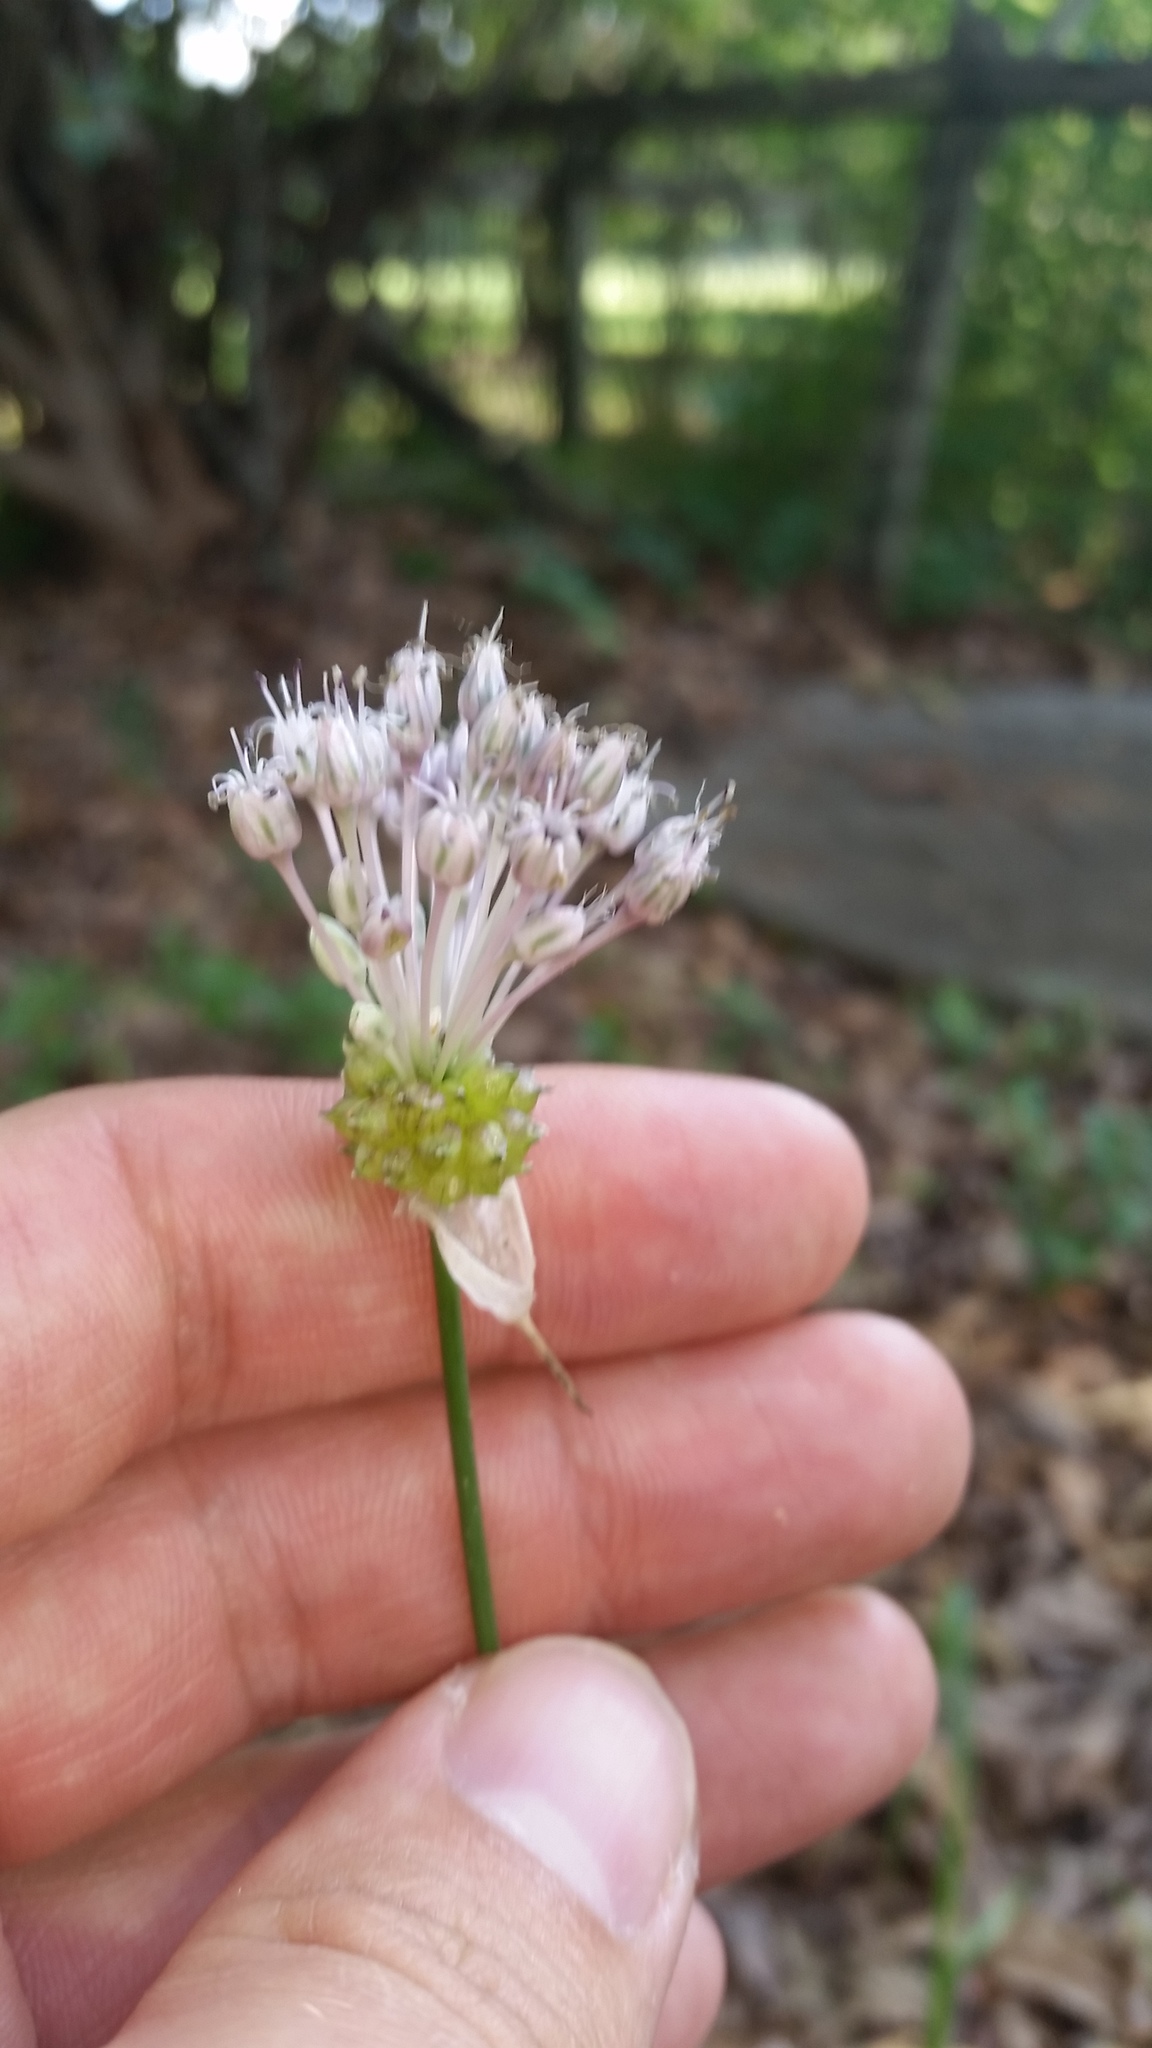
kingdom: Plantae
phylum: Tracheophyta
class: Liliopsida
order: Asparagales
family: Amaryllidaceae
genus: Allium
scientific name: Allium vineale
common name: Crow garlic
